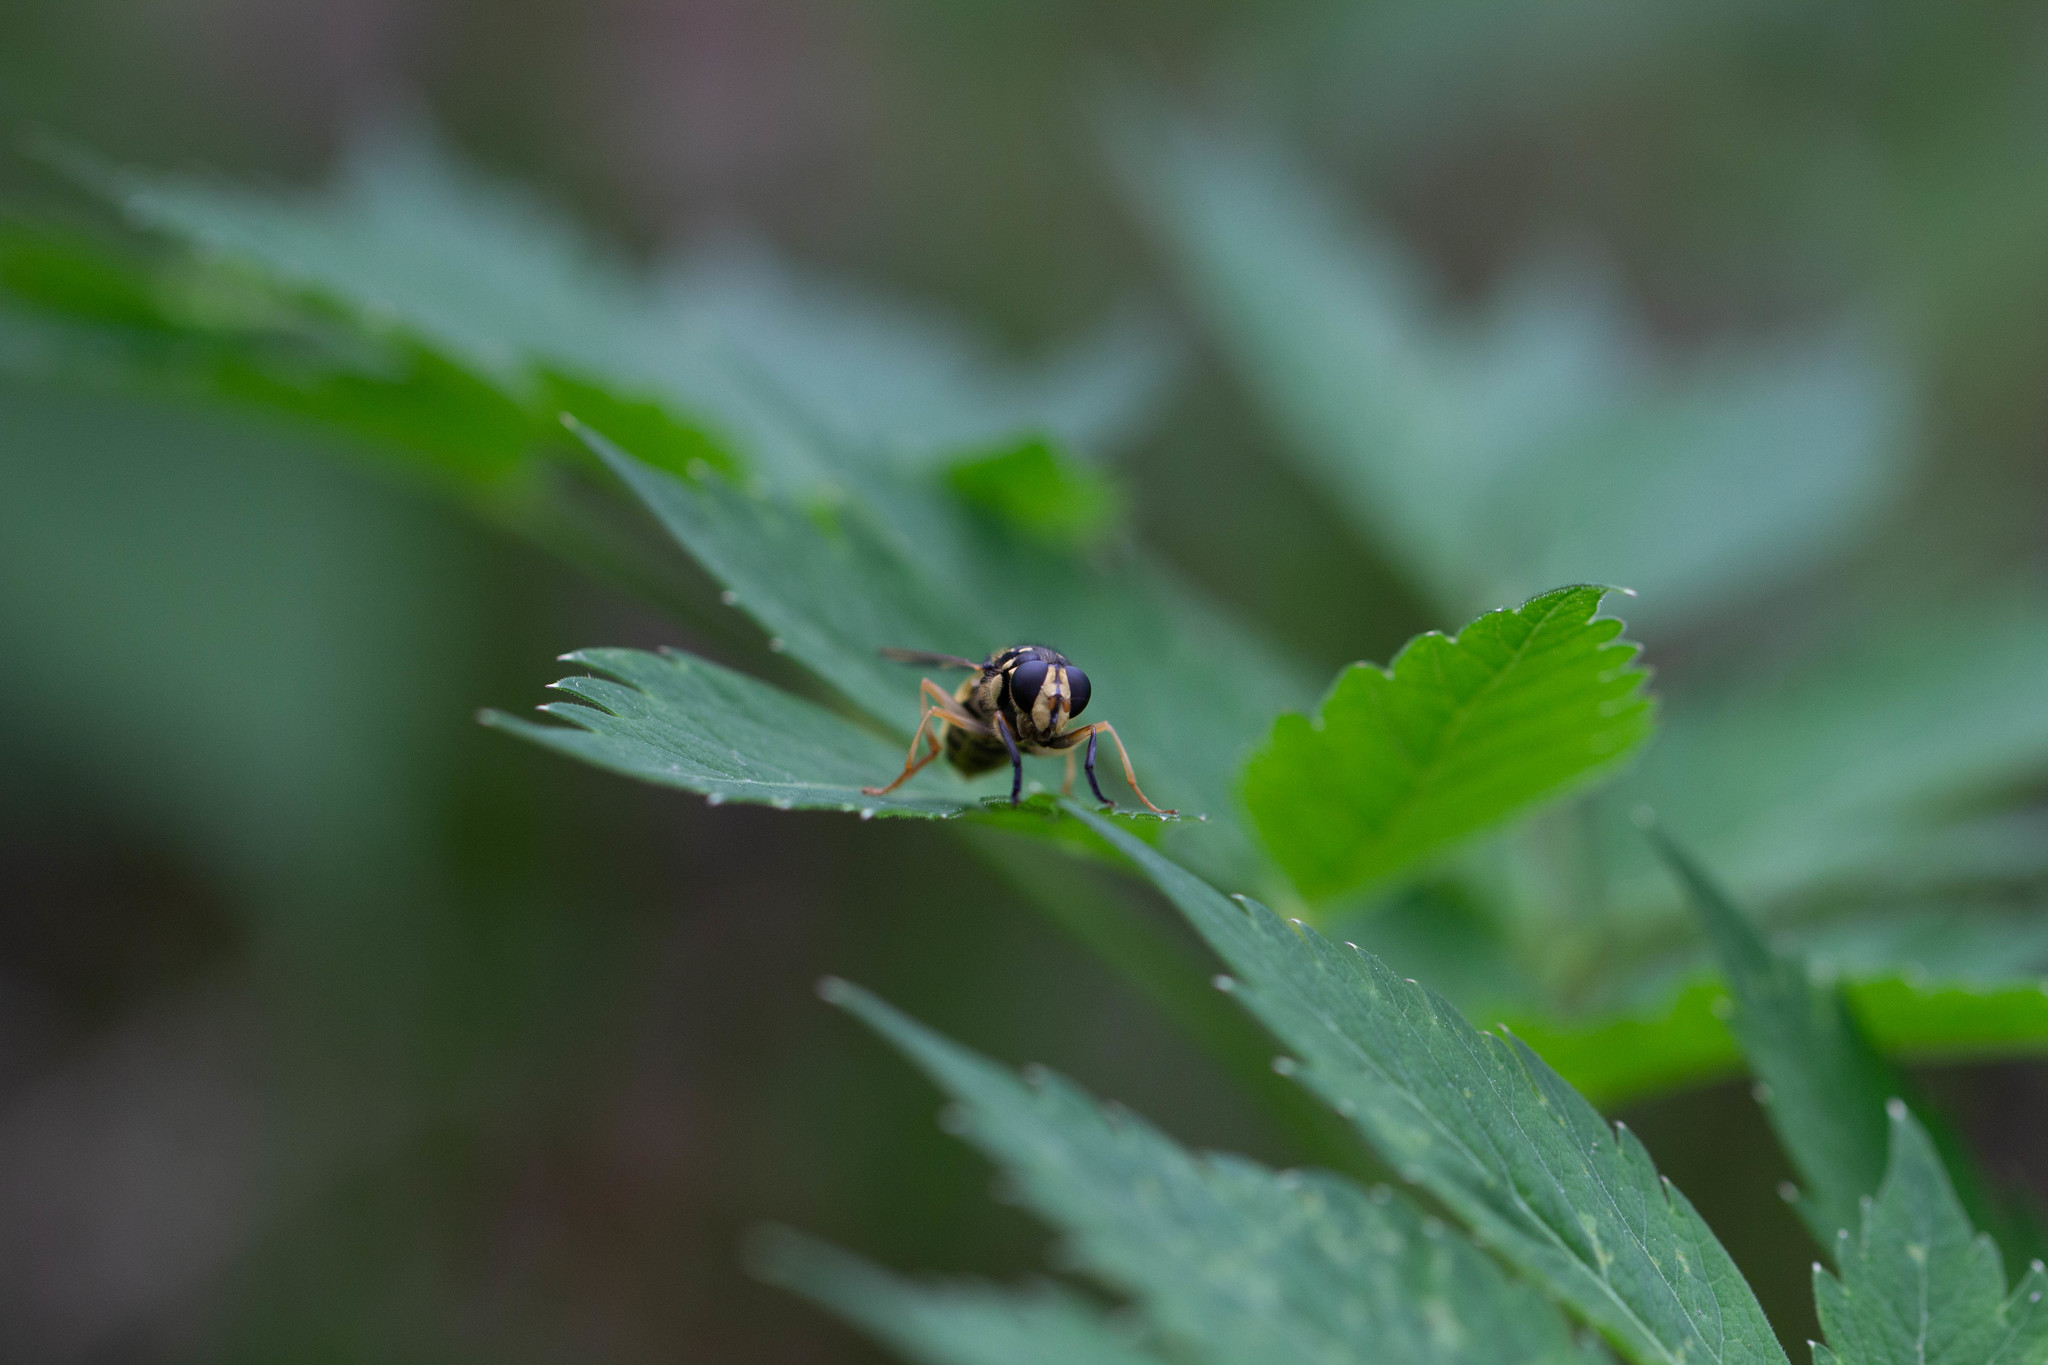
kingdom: Animalia
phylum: Arthropoda
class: Insecta
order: Diptera
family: Syrphidae
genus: Temnostoma
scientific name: Temnostoma alternans
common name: Wasp-like falsehorn
